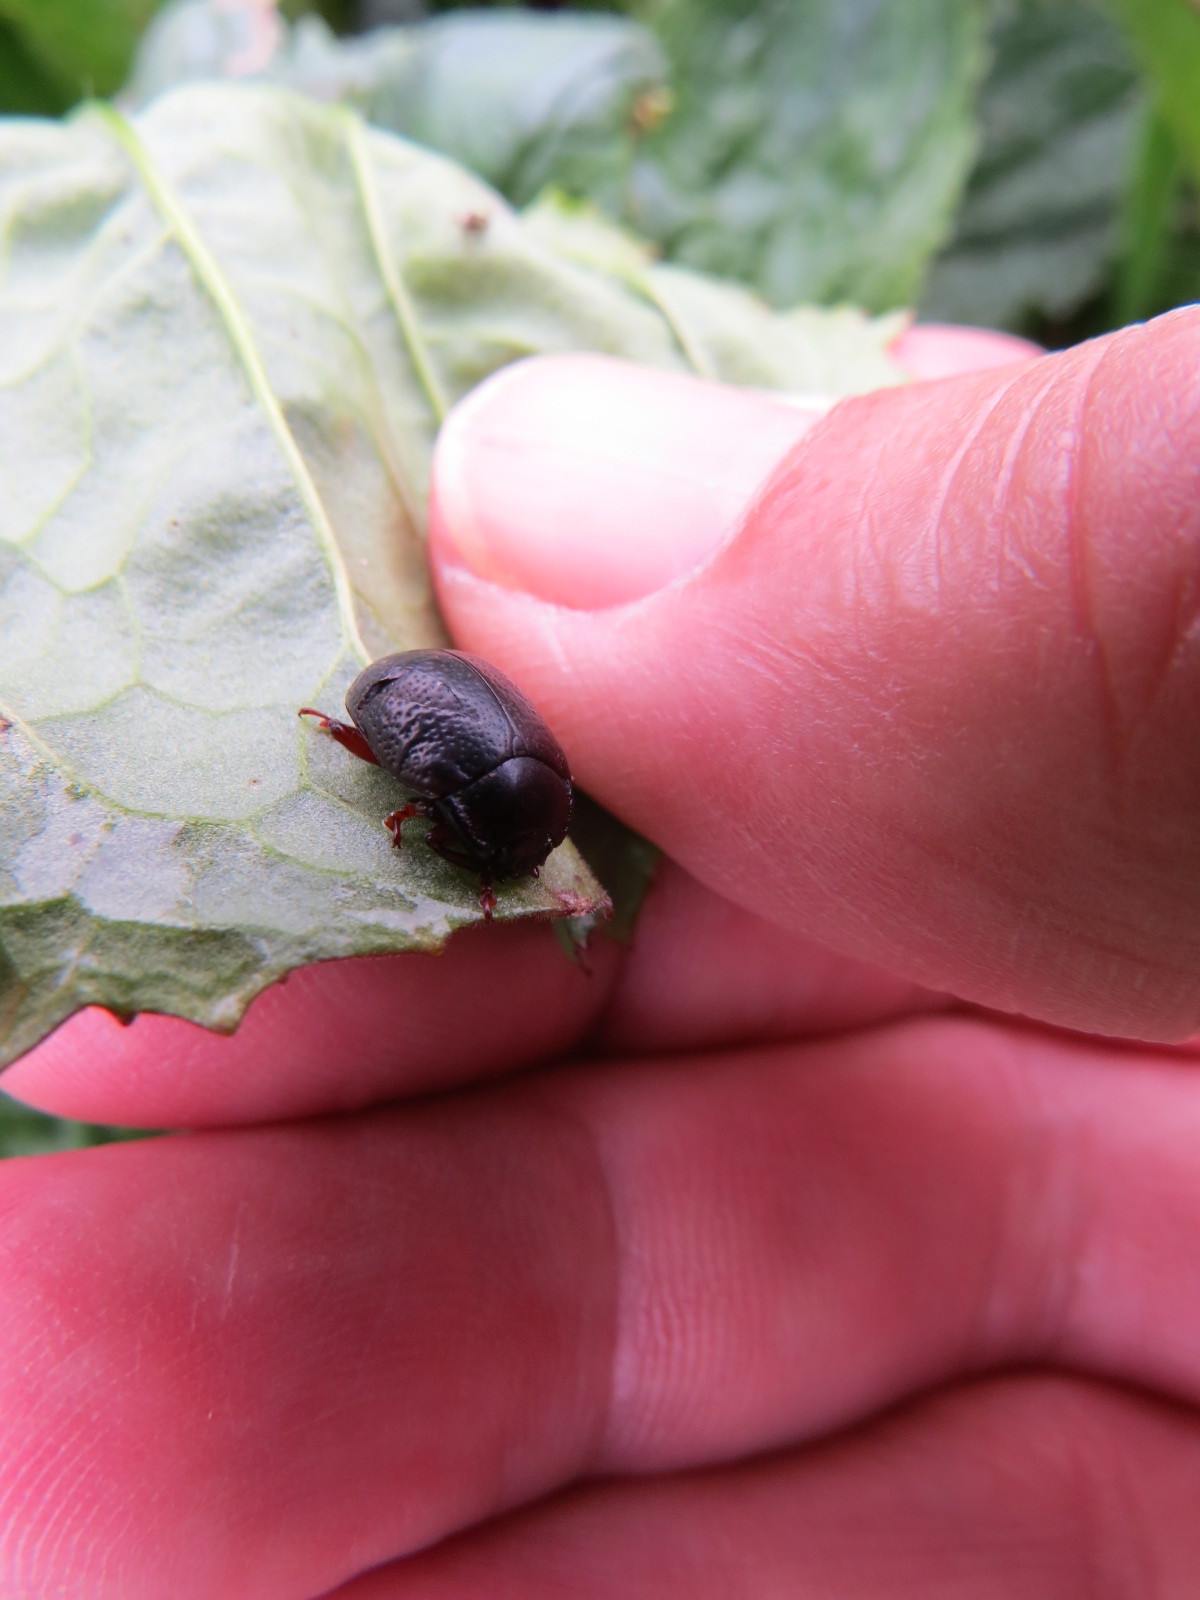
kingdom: Animalia
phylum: Arthropoda
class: Insecta
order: Coleoptera
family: Chrysomelidae
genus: Chrysolina
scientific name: Chrysolina bankii
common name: Leaf beetle
